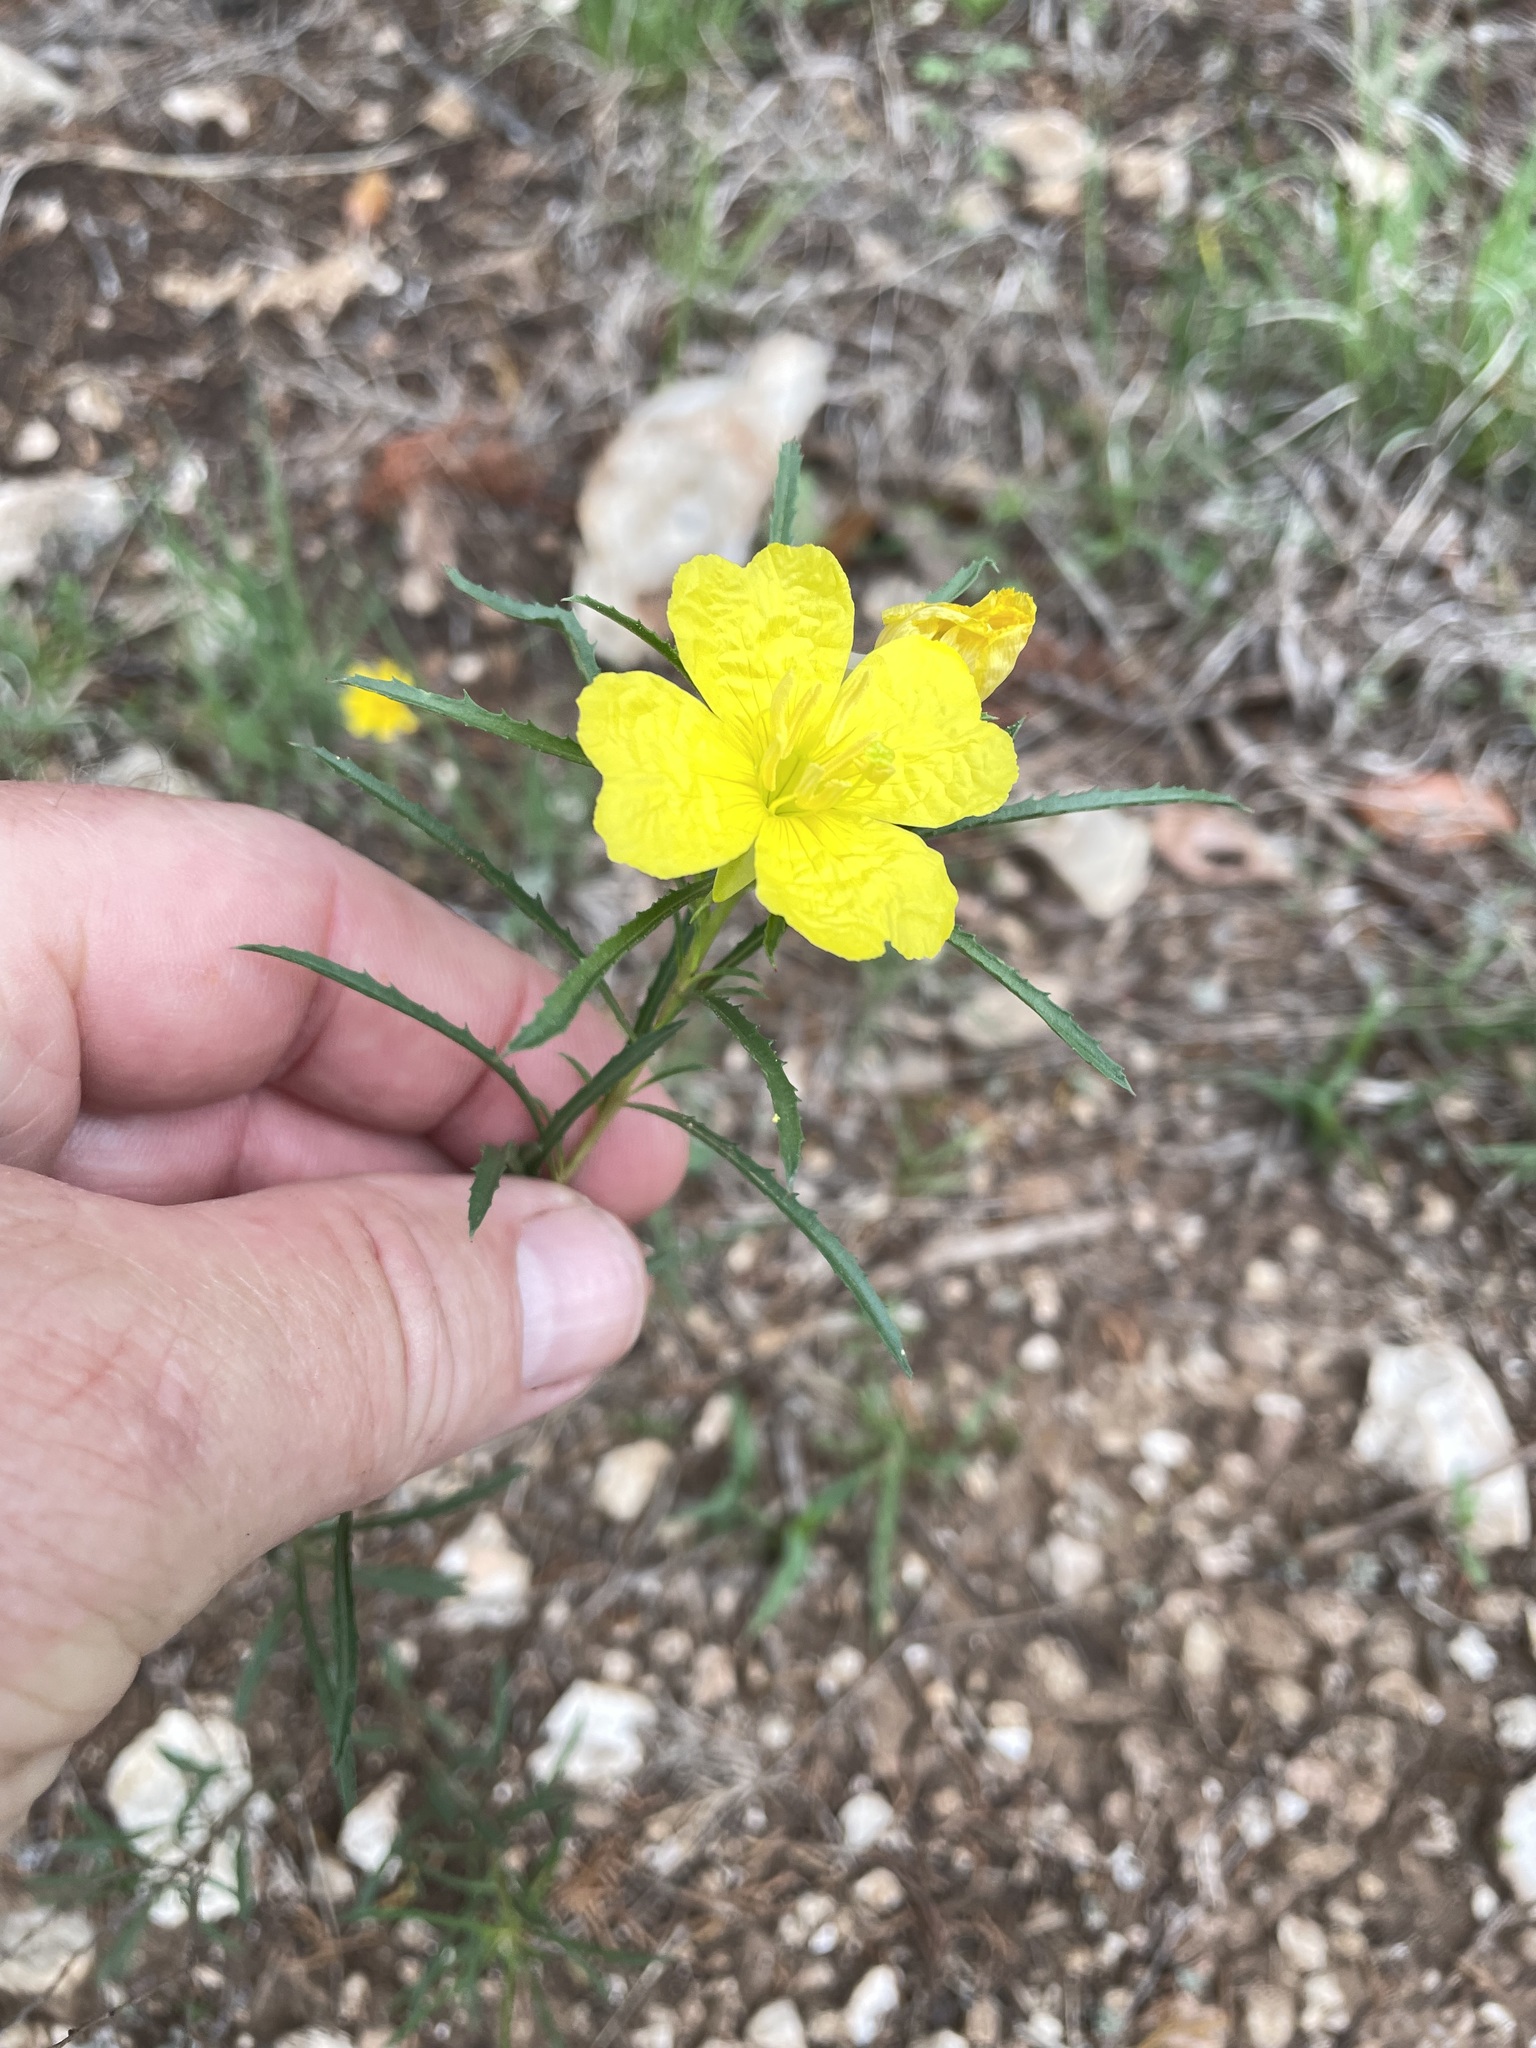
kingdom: Plantae
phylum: Tracheophyta
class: Magnoliopsida
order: Myrtales
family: Onagraceae
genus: Oenothera
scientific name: Oenothera
